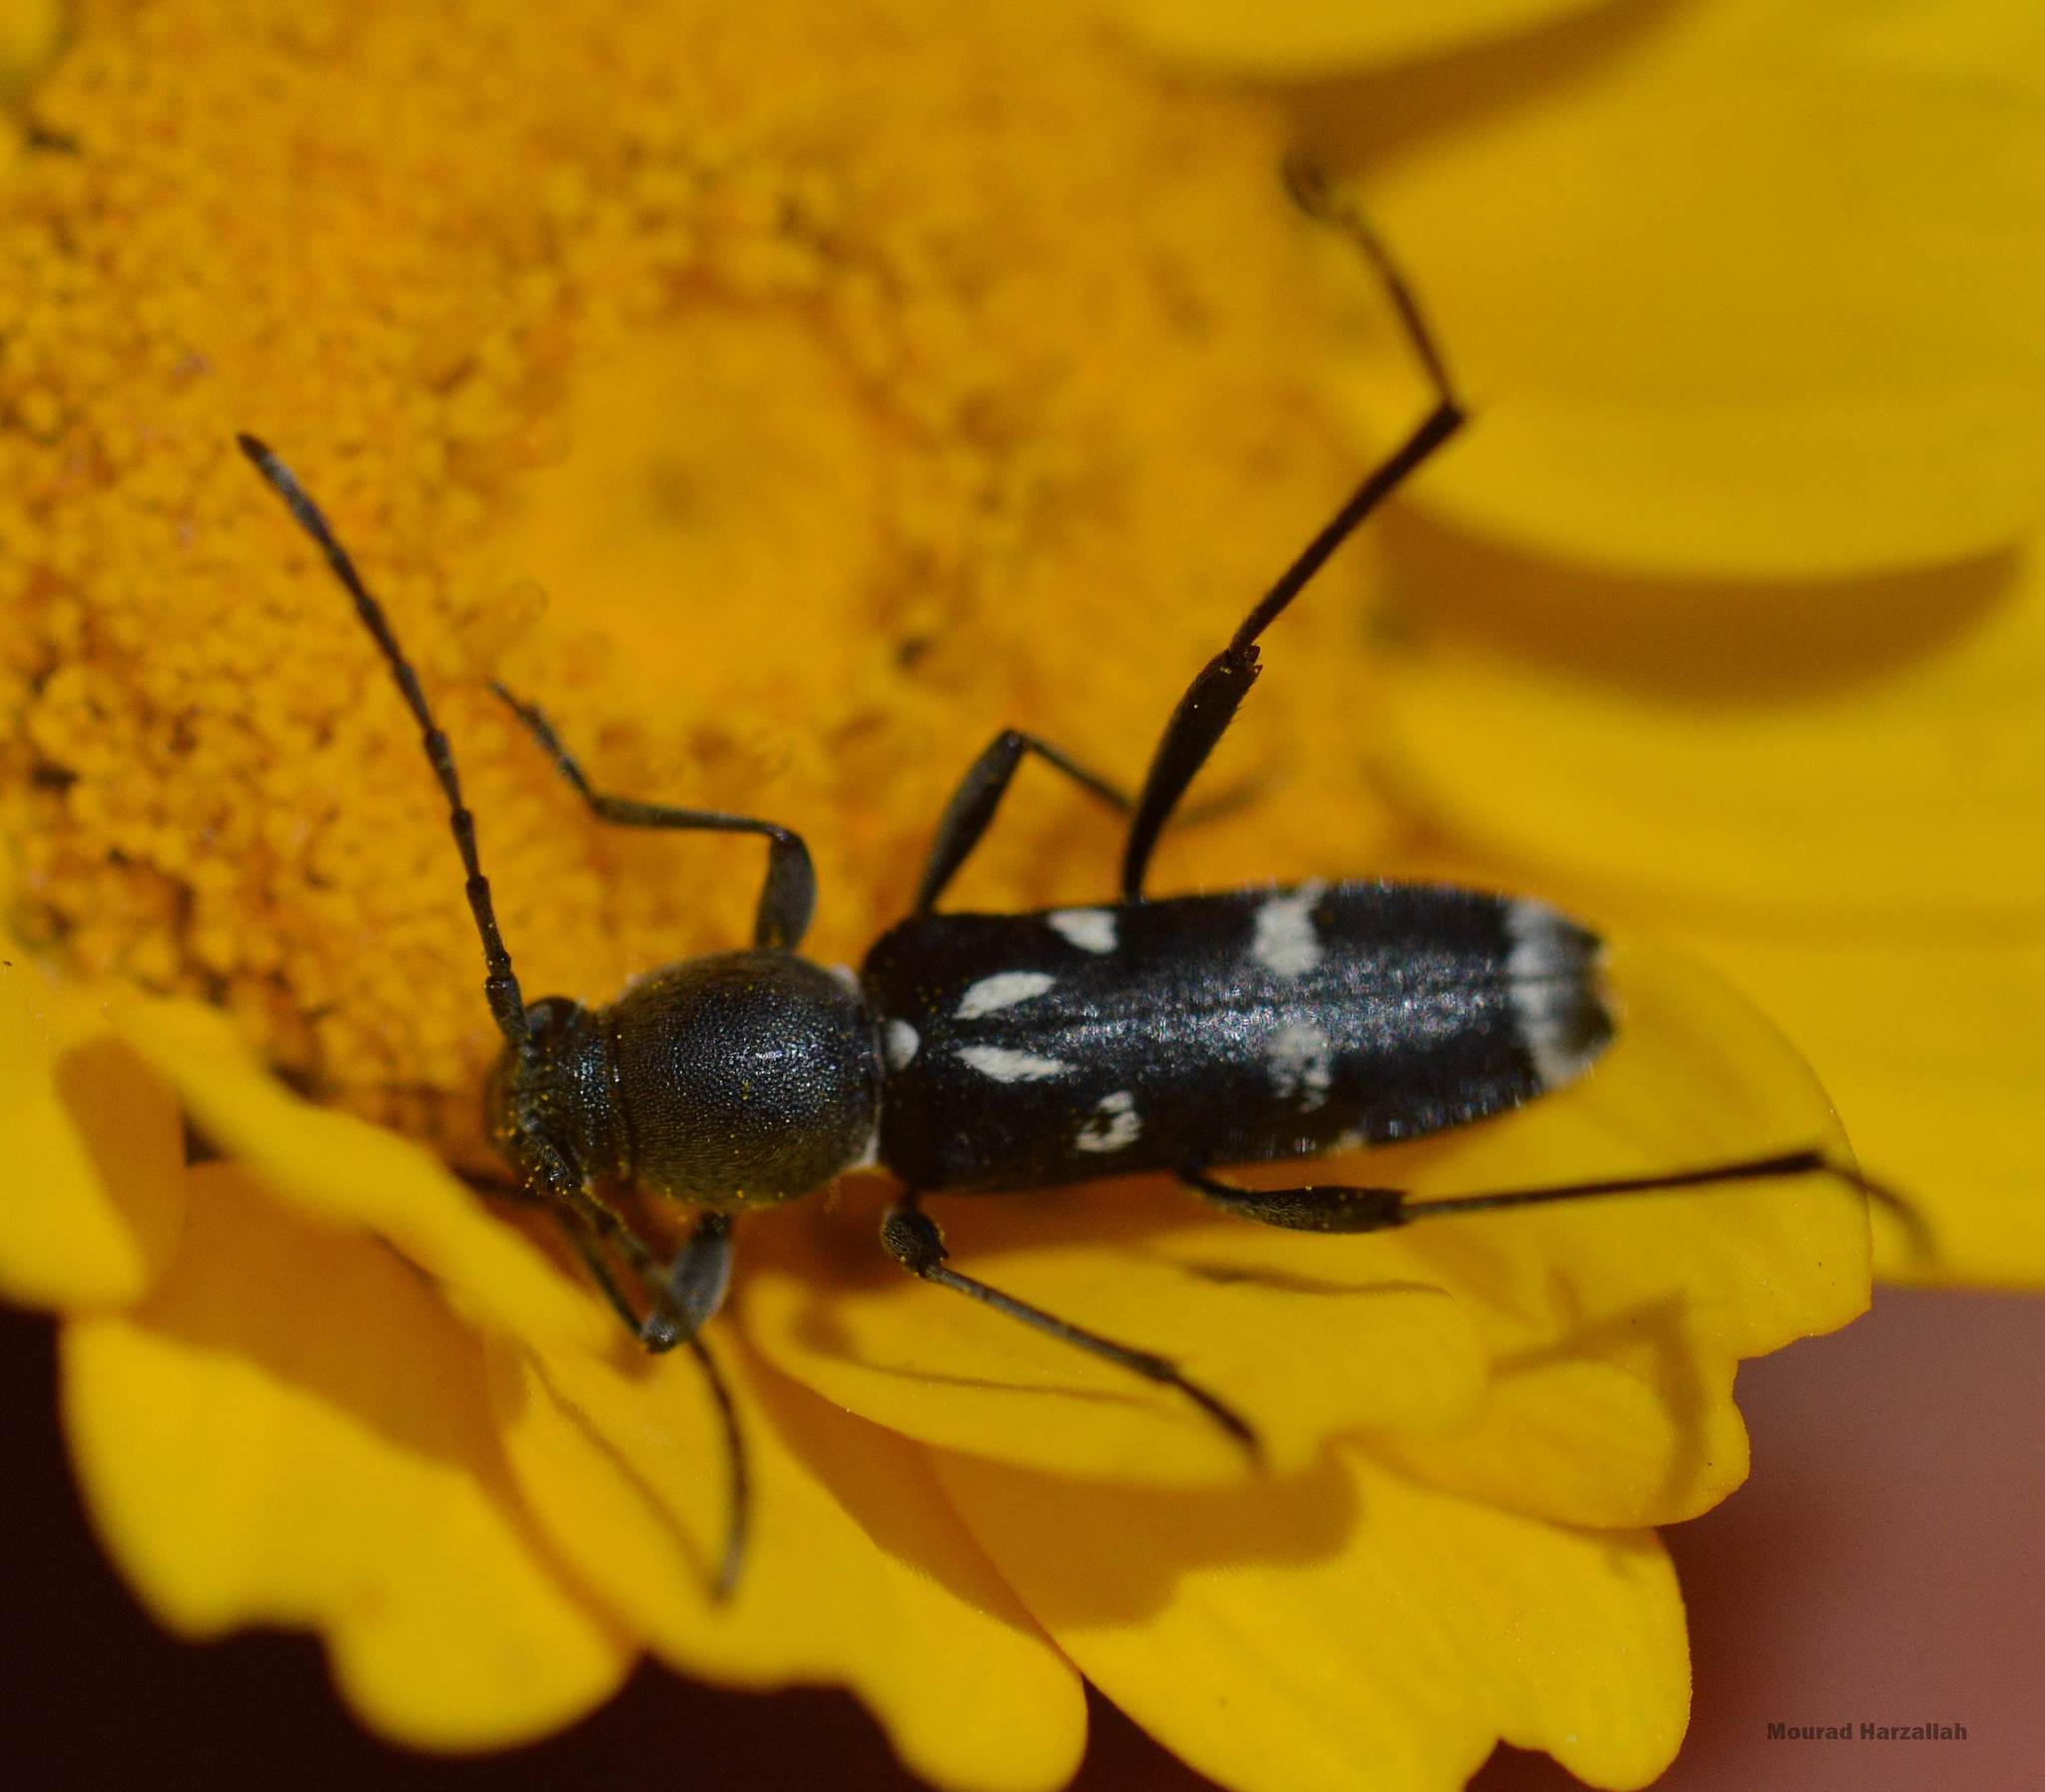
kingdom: Animalia
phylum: Arthropoda
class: Insecta
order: Coleoptera
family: Cerambycidae
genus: Chlorophorus
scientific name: Chlorophorus pelleteri
